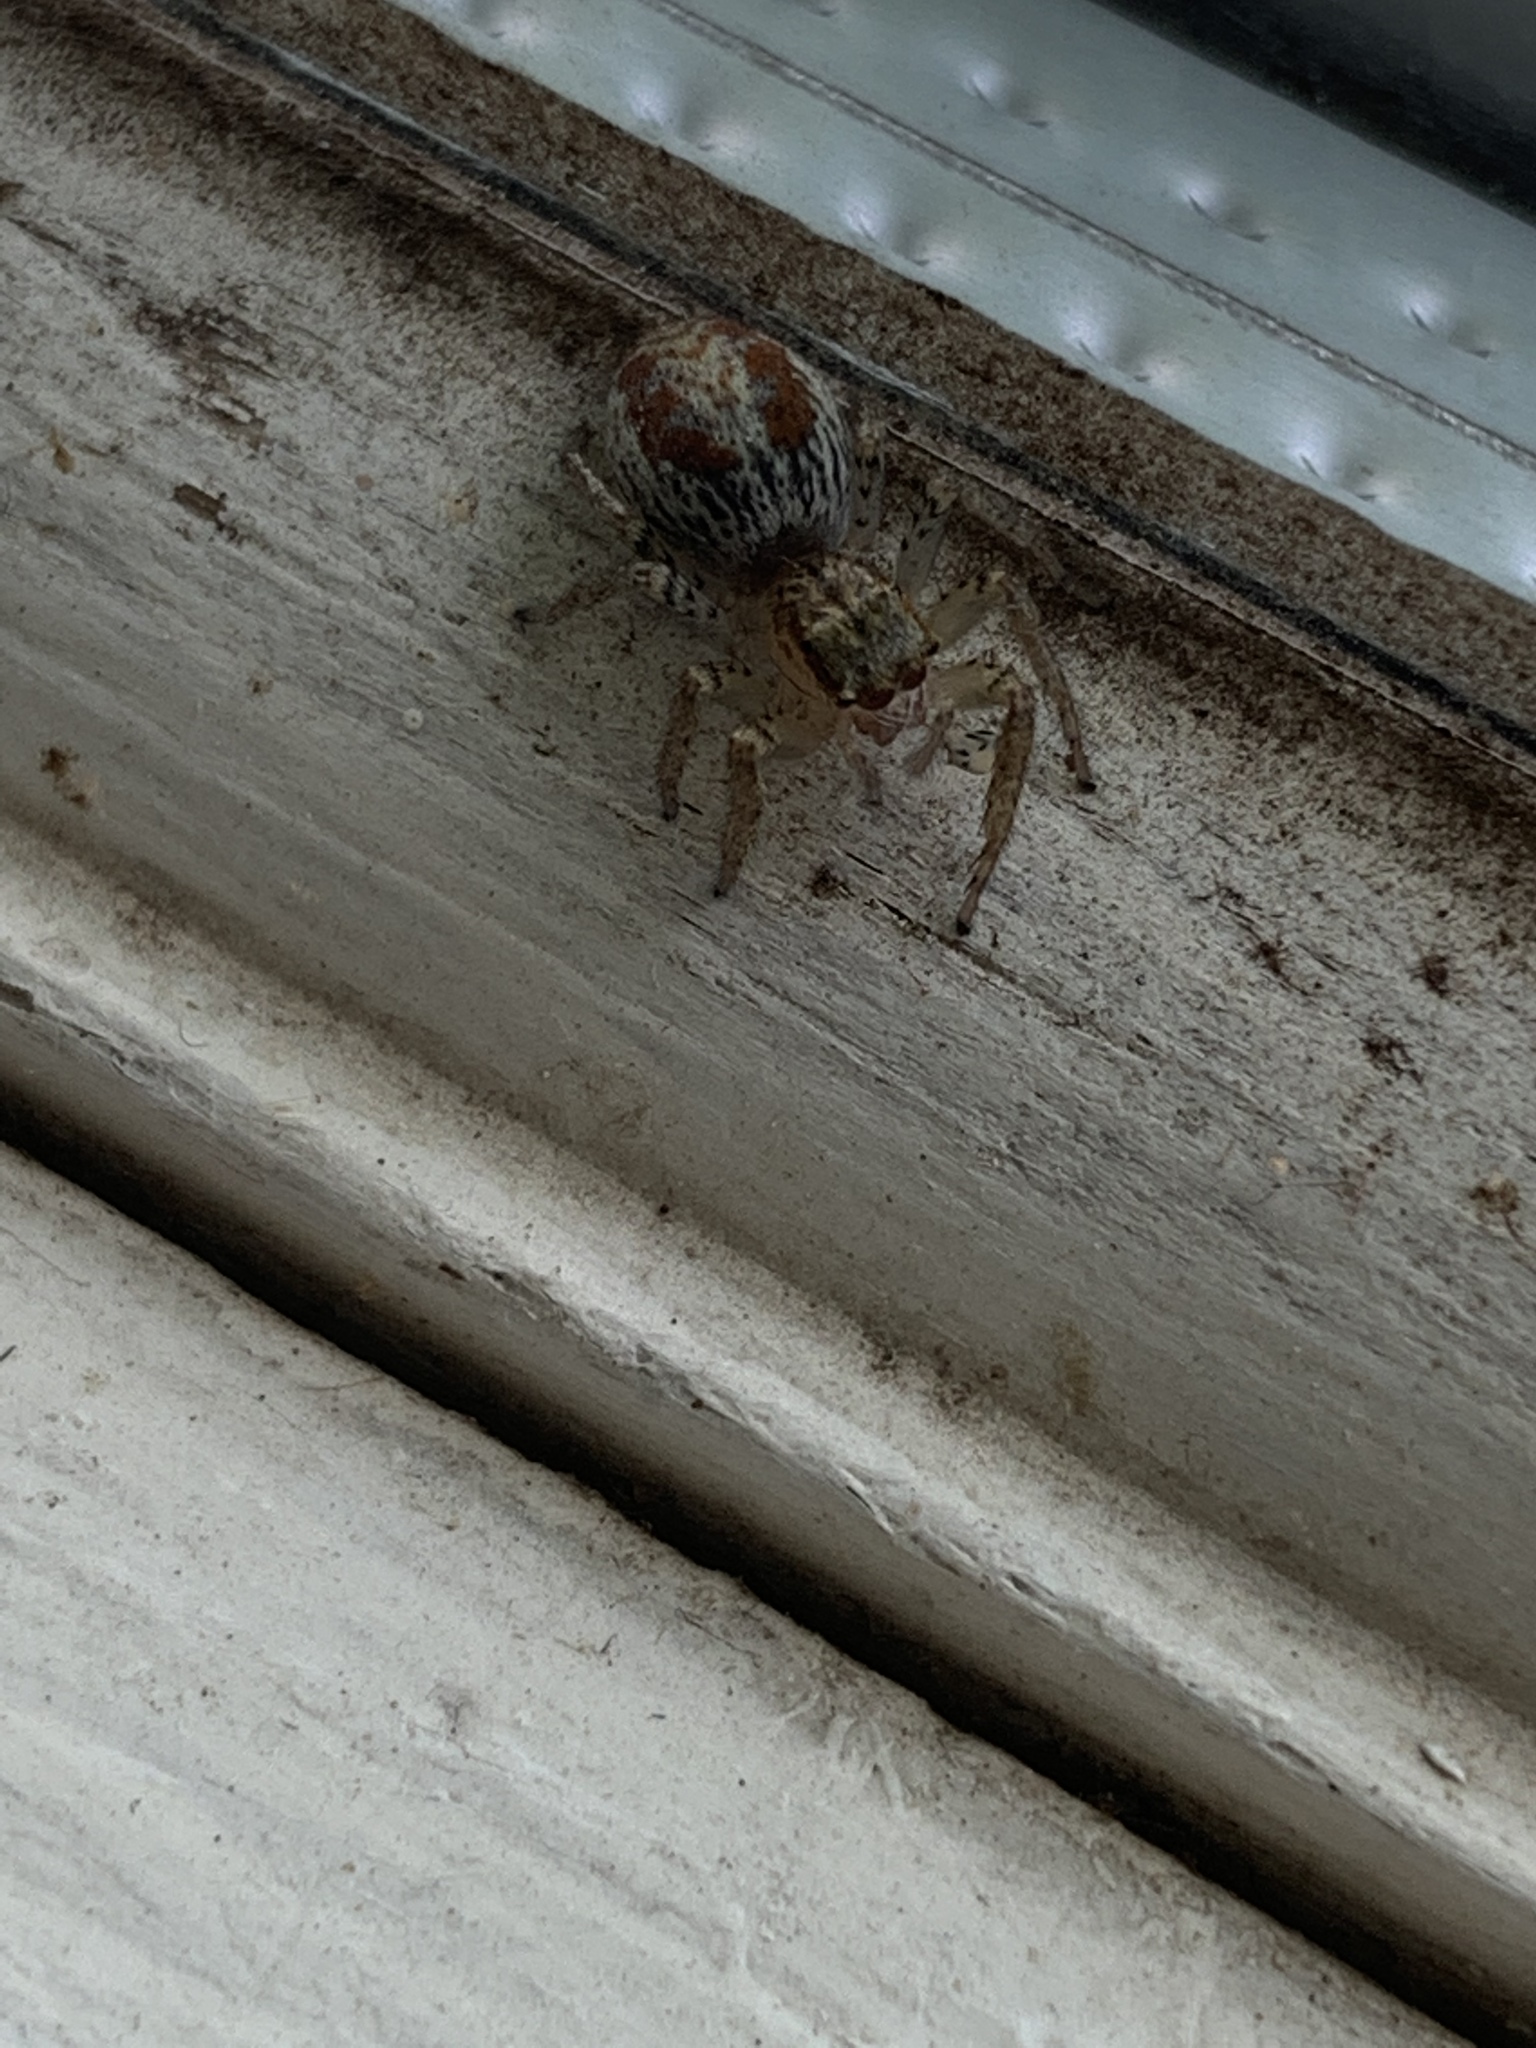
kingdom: Animalia
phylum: Arthropoda
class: Arachnida
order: Araneae
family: Salticidae
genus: Maevia
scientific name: Maevia inclemens
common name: Dimorphic jumper
